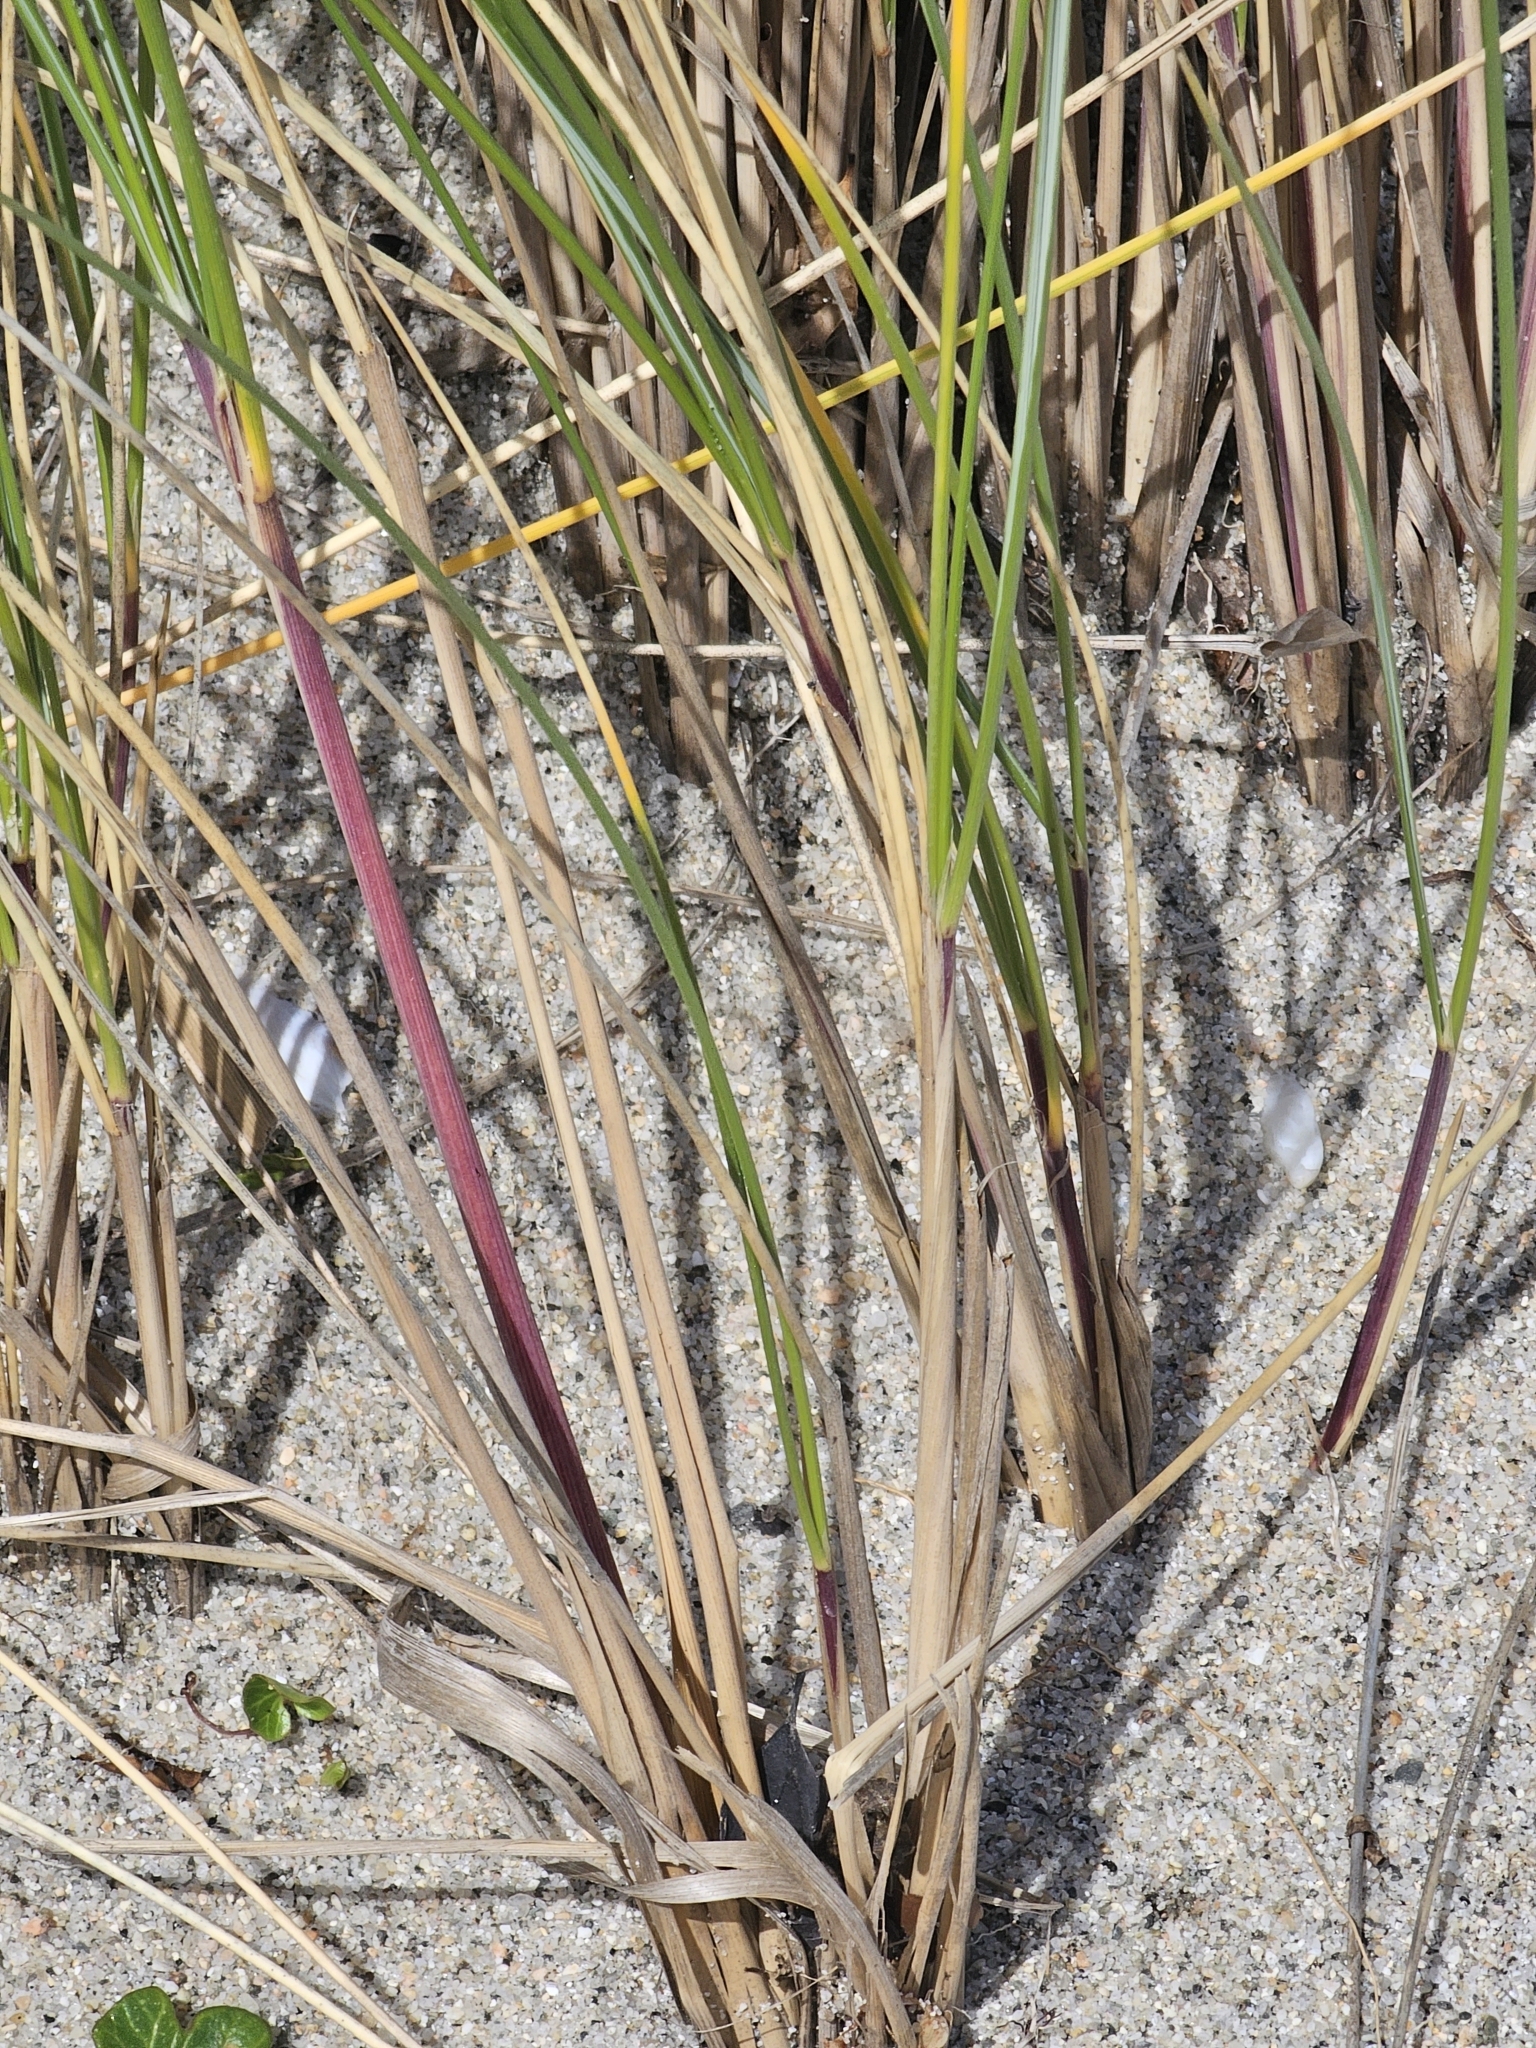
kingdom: Plantae
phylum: Tracheophyta
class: Liliopsida
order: Poales
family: Poaceae
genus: Calamagrostis
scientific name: Calamagrostis arenaria
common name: European beachgrass
